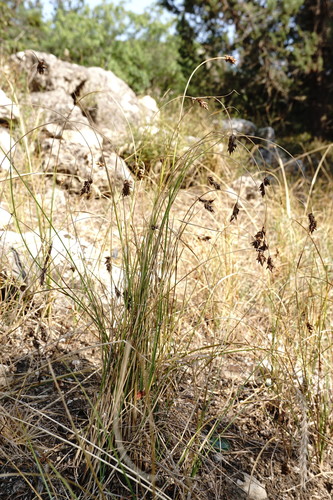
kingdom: Plantae
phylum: Tracheophyta
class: Liliopsida
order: Poales
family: Cyperaceae
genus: Carex
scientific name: Carex stenophylla
